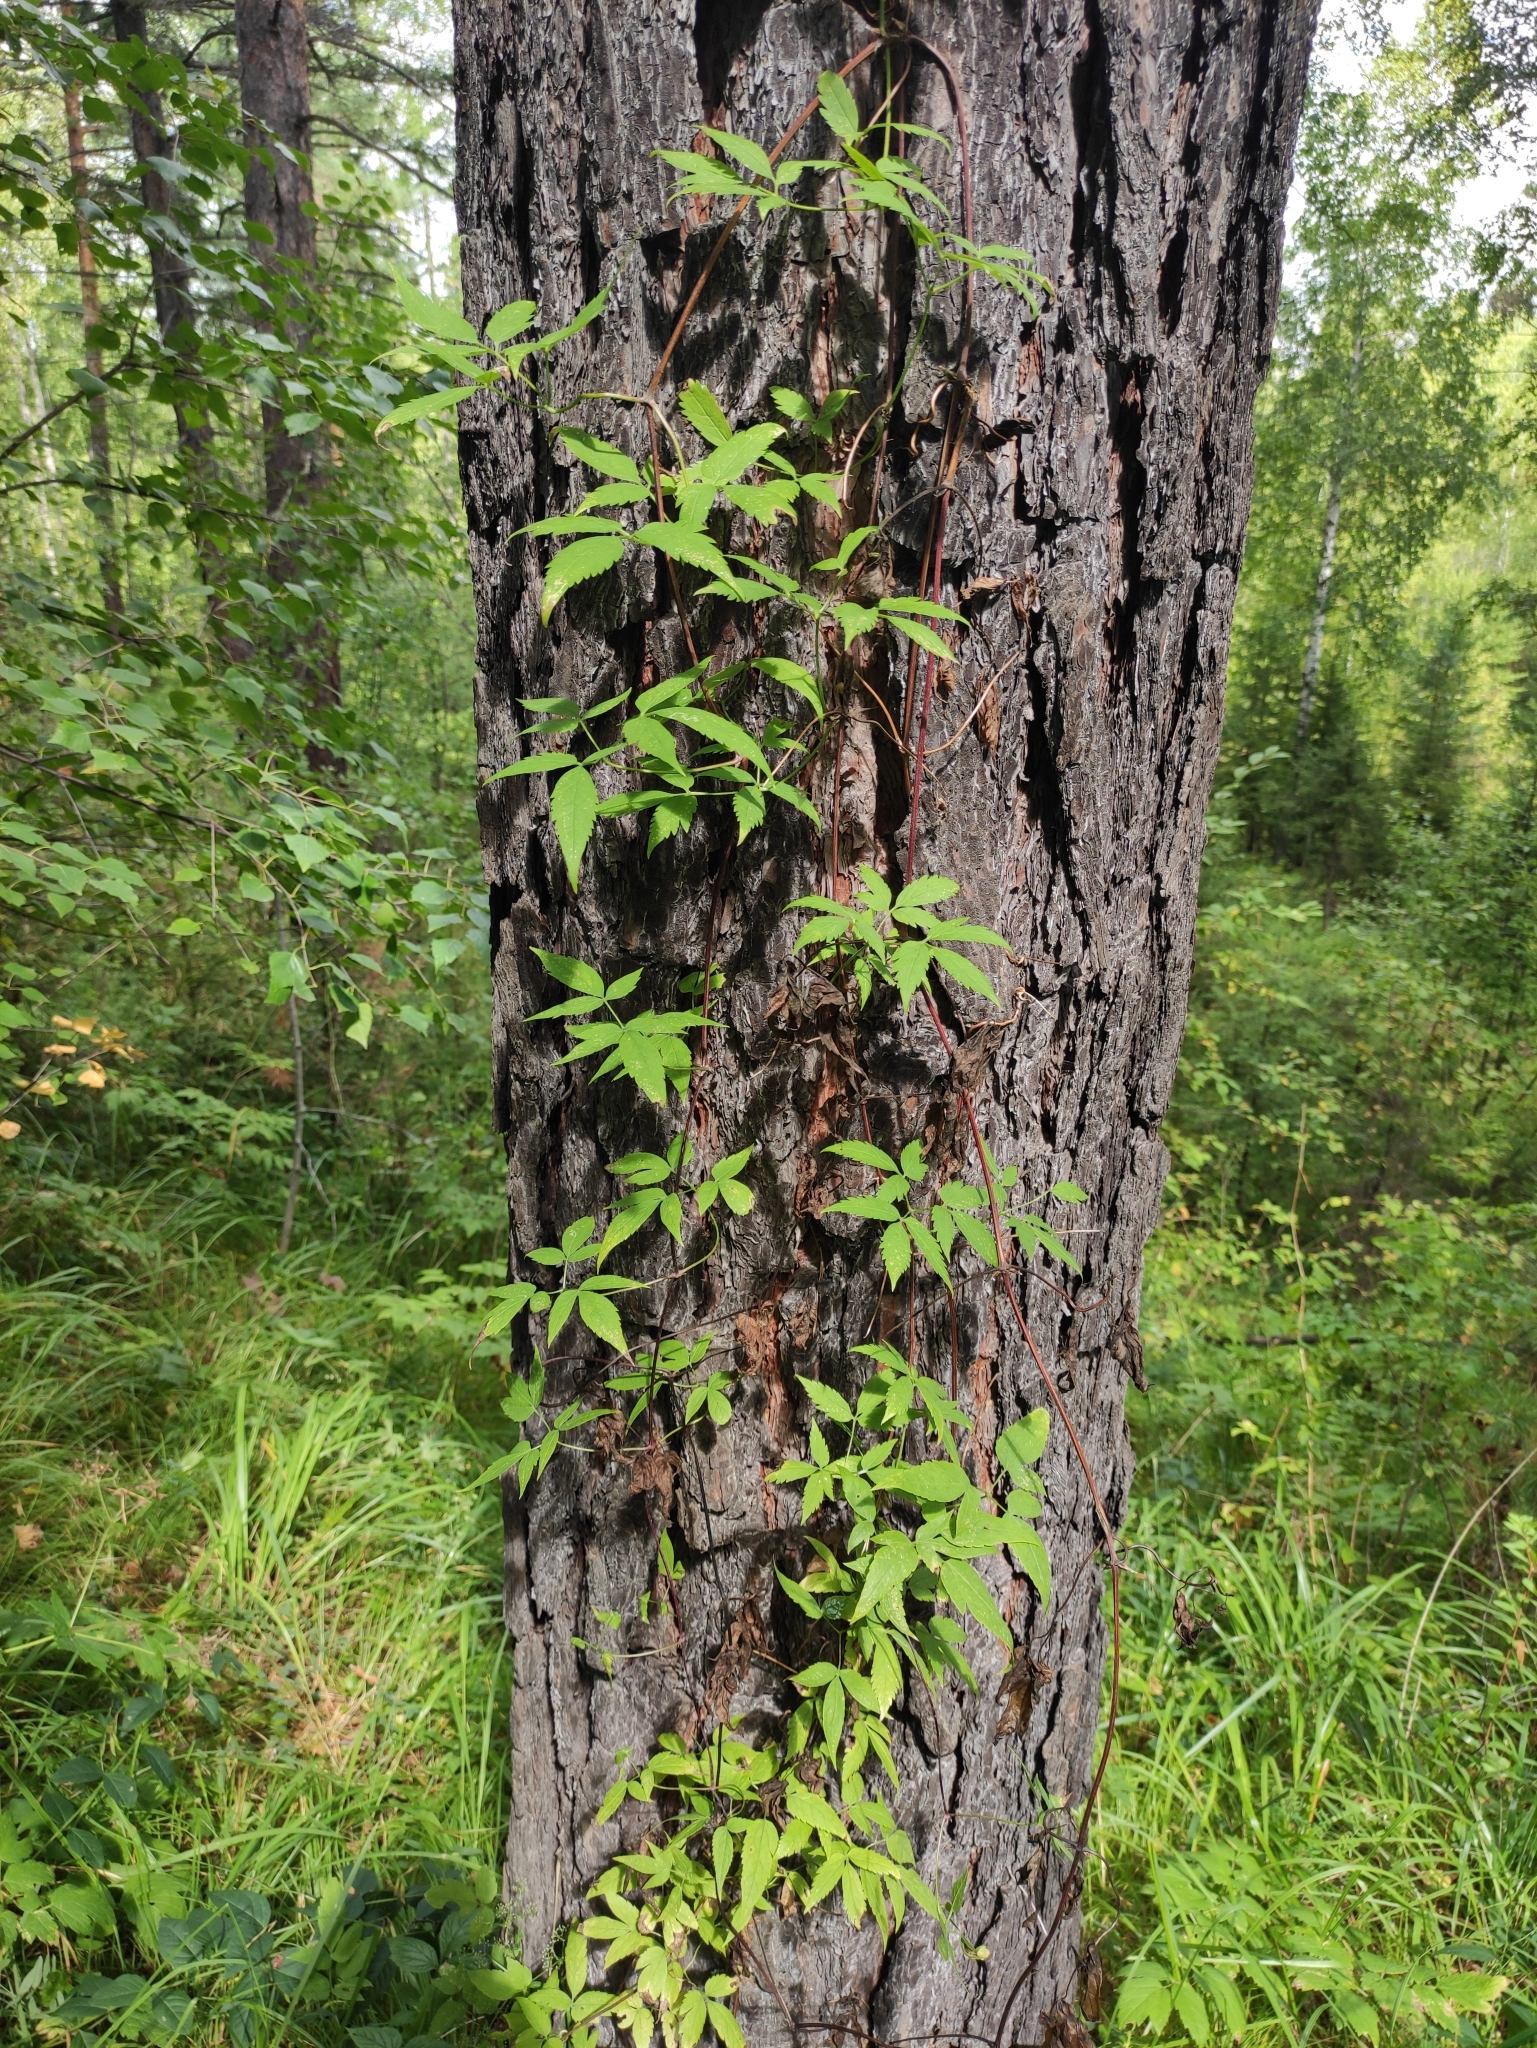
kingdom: Plantae
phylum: Tracheophyta
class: Magnoliopsida
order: Ranunculales
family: Ranunculaceae
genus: Clematis
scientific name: Clematis sibirica
